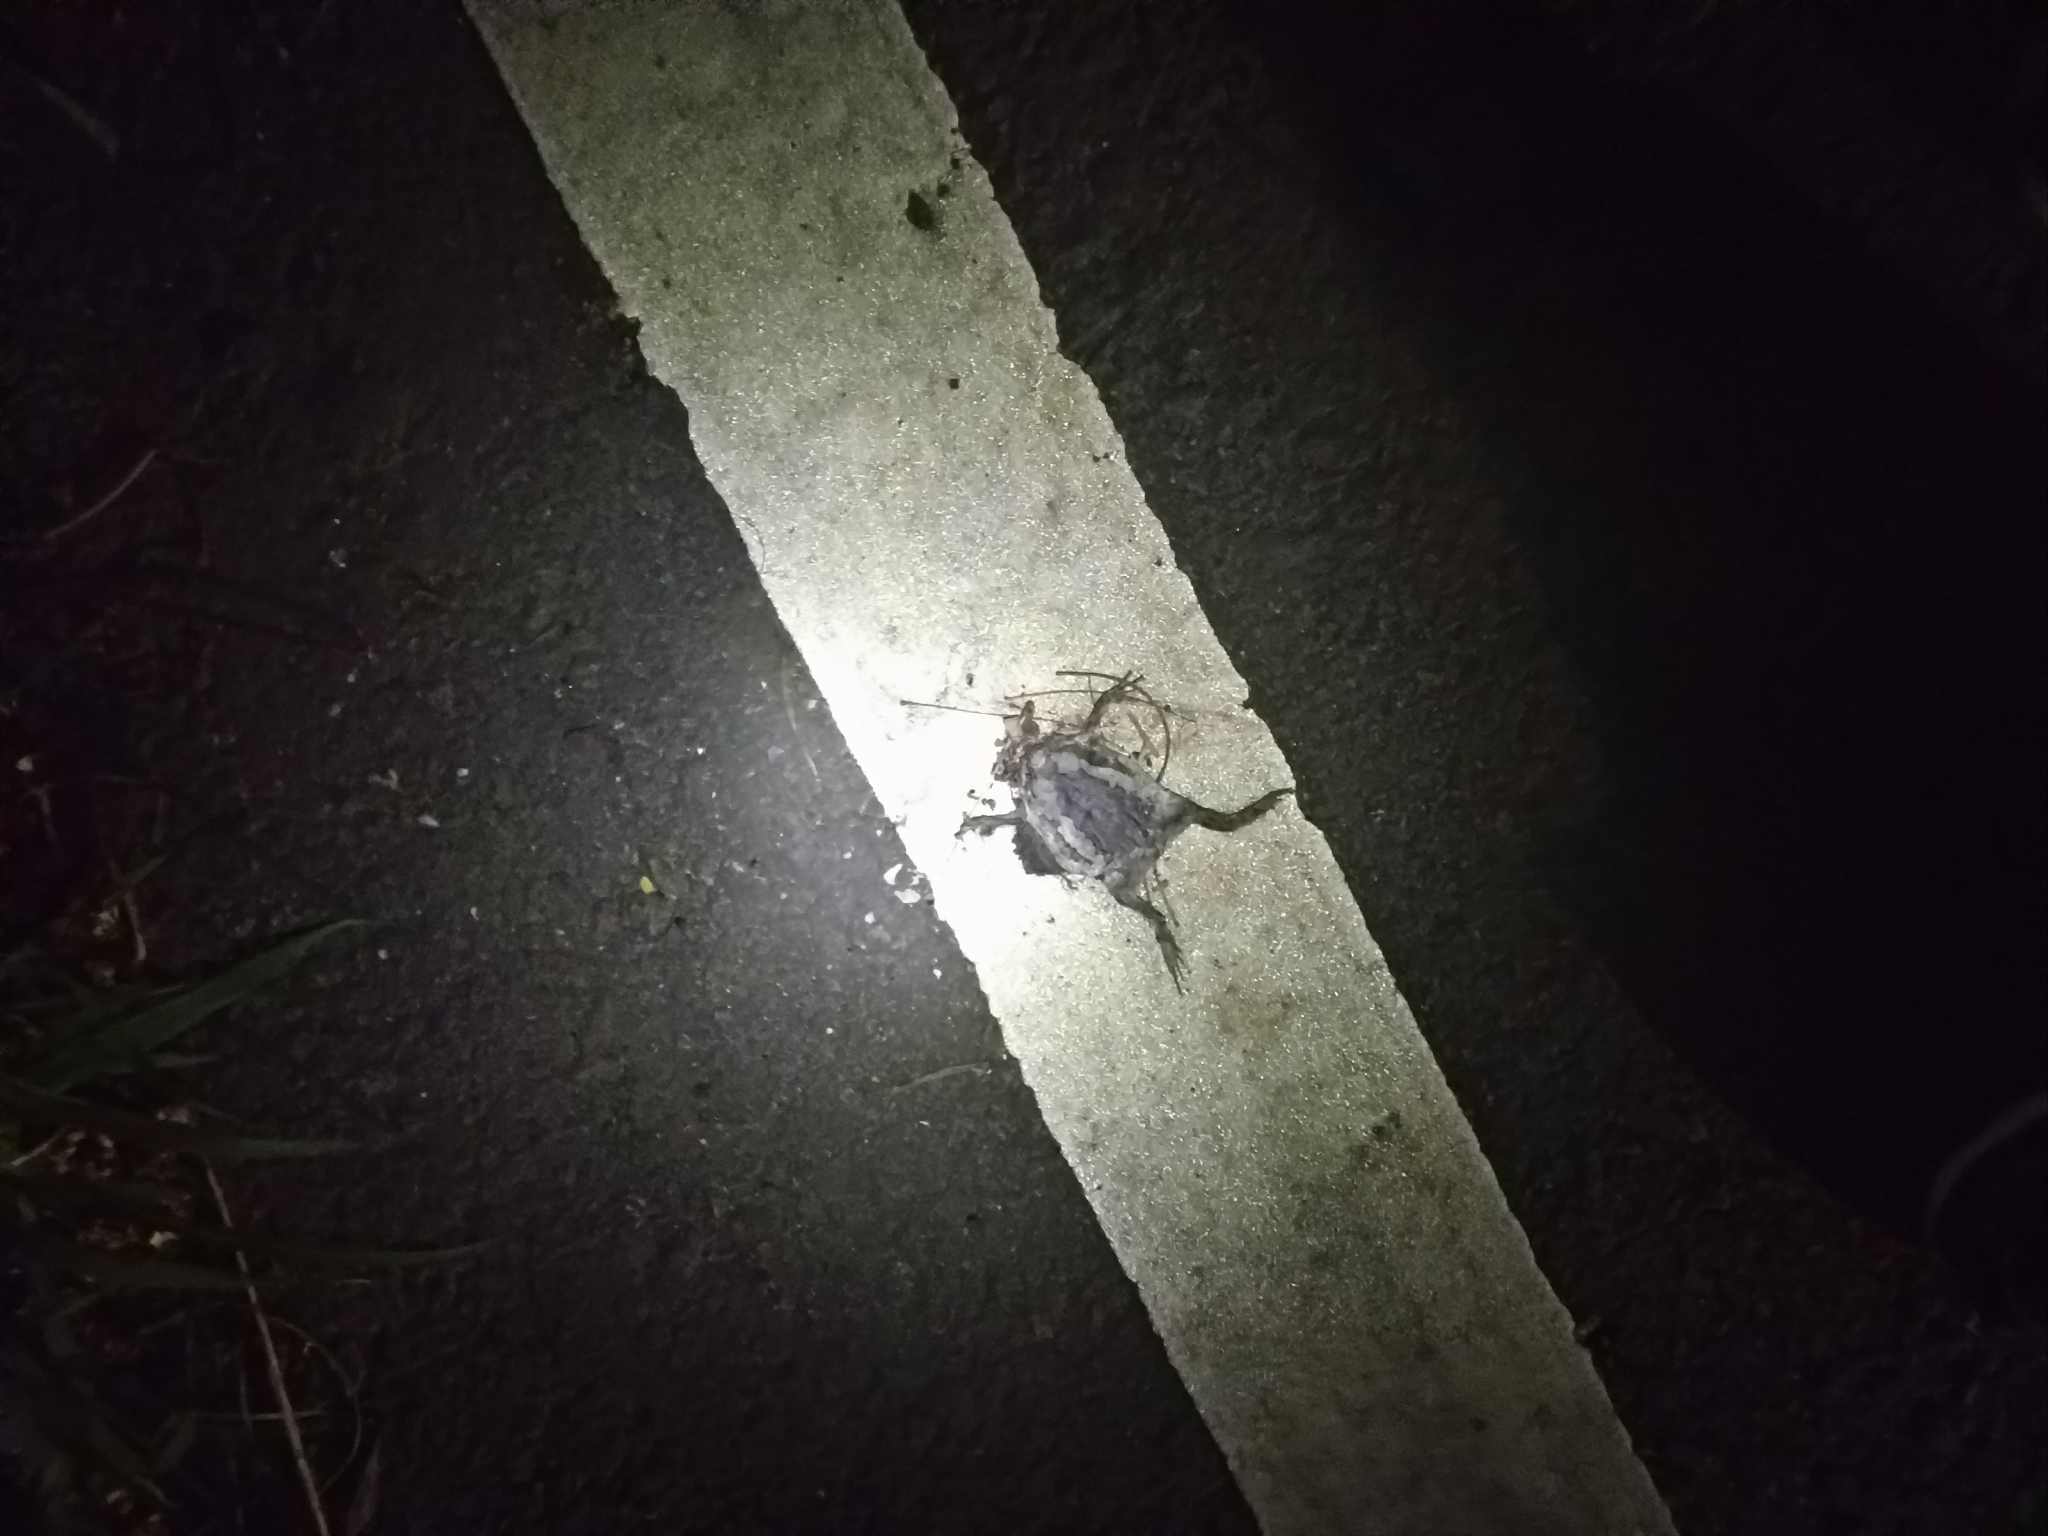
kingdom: Animalia
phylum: Chordata
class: Amphibia
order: Anura
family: Microhylidae
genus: Kaloula
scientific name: Kaloula pulchra
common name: Common,banded bullfrog
